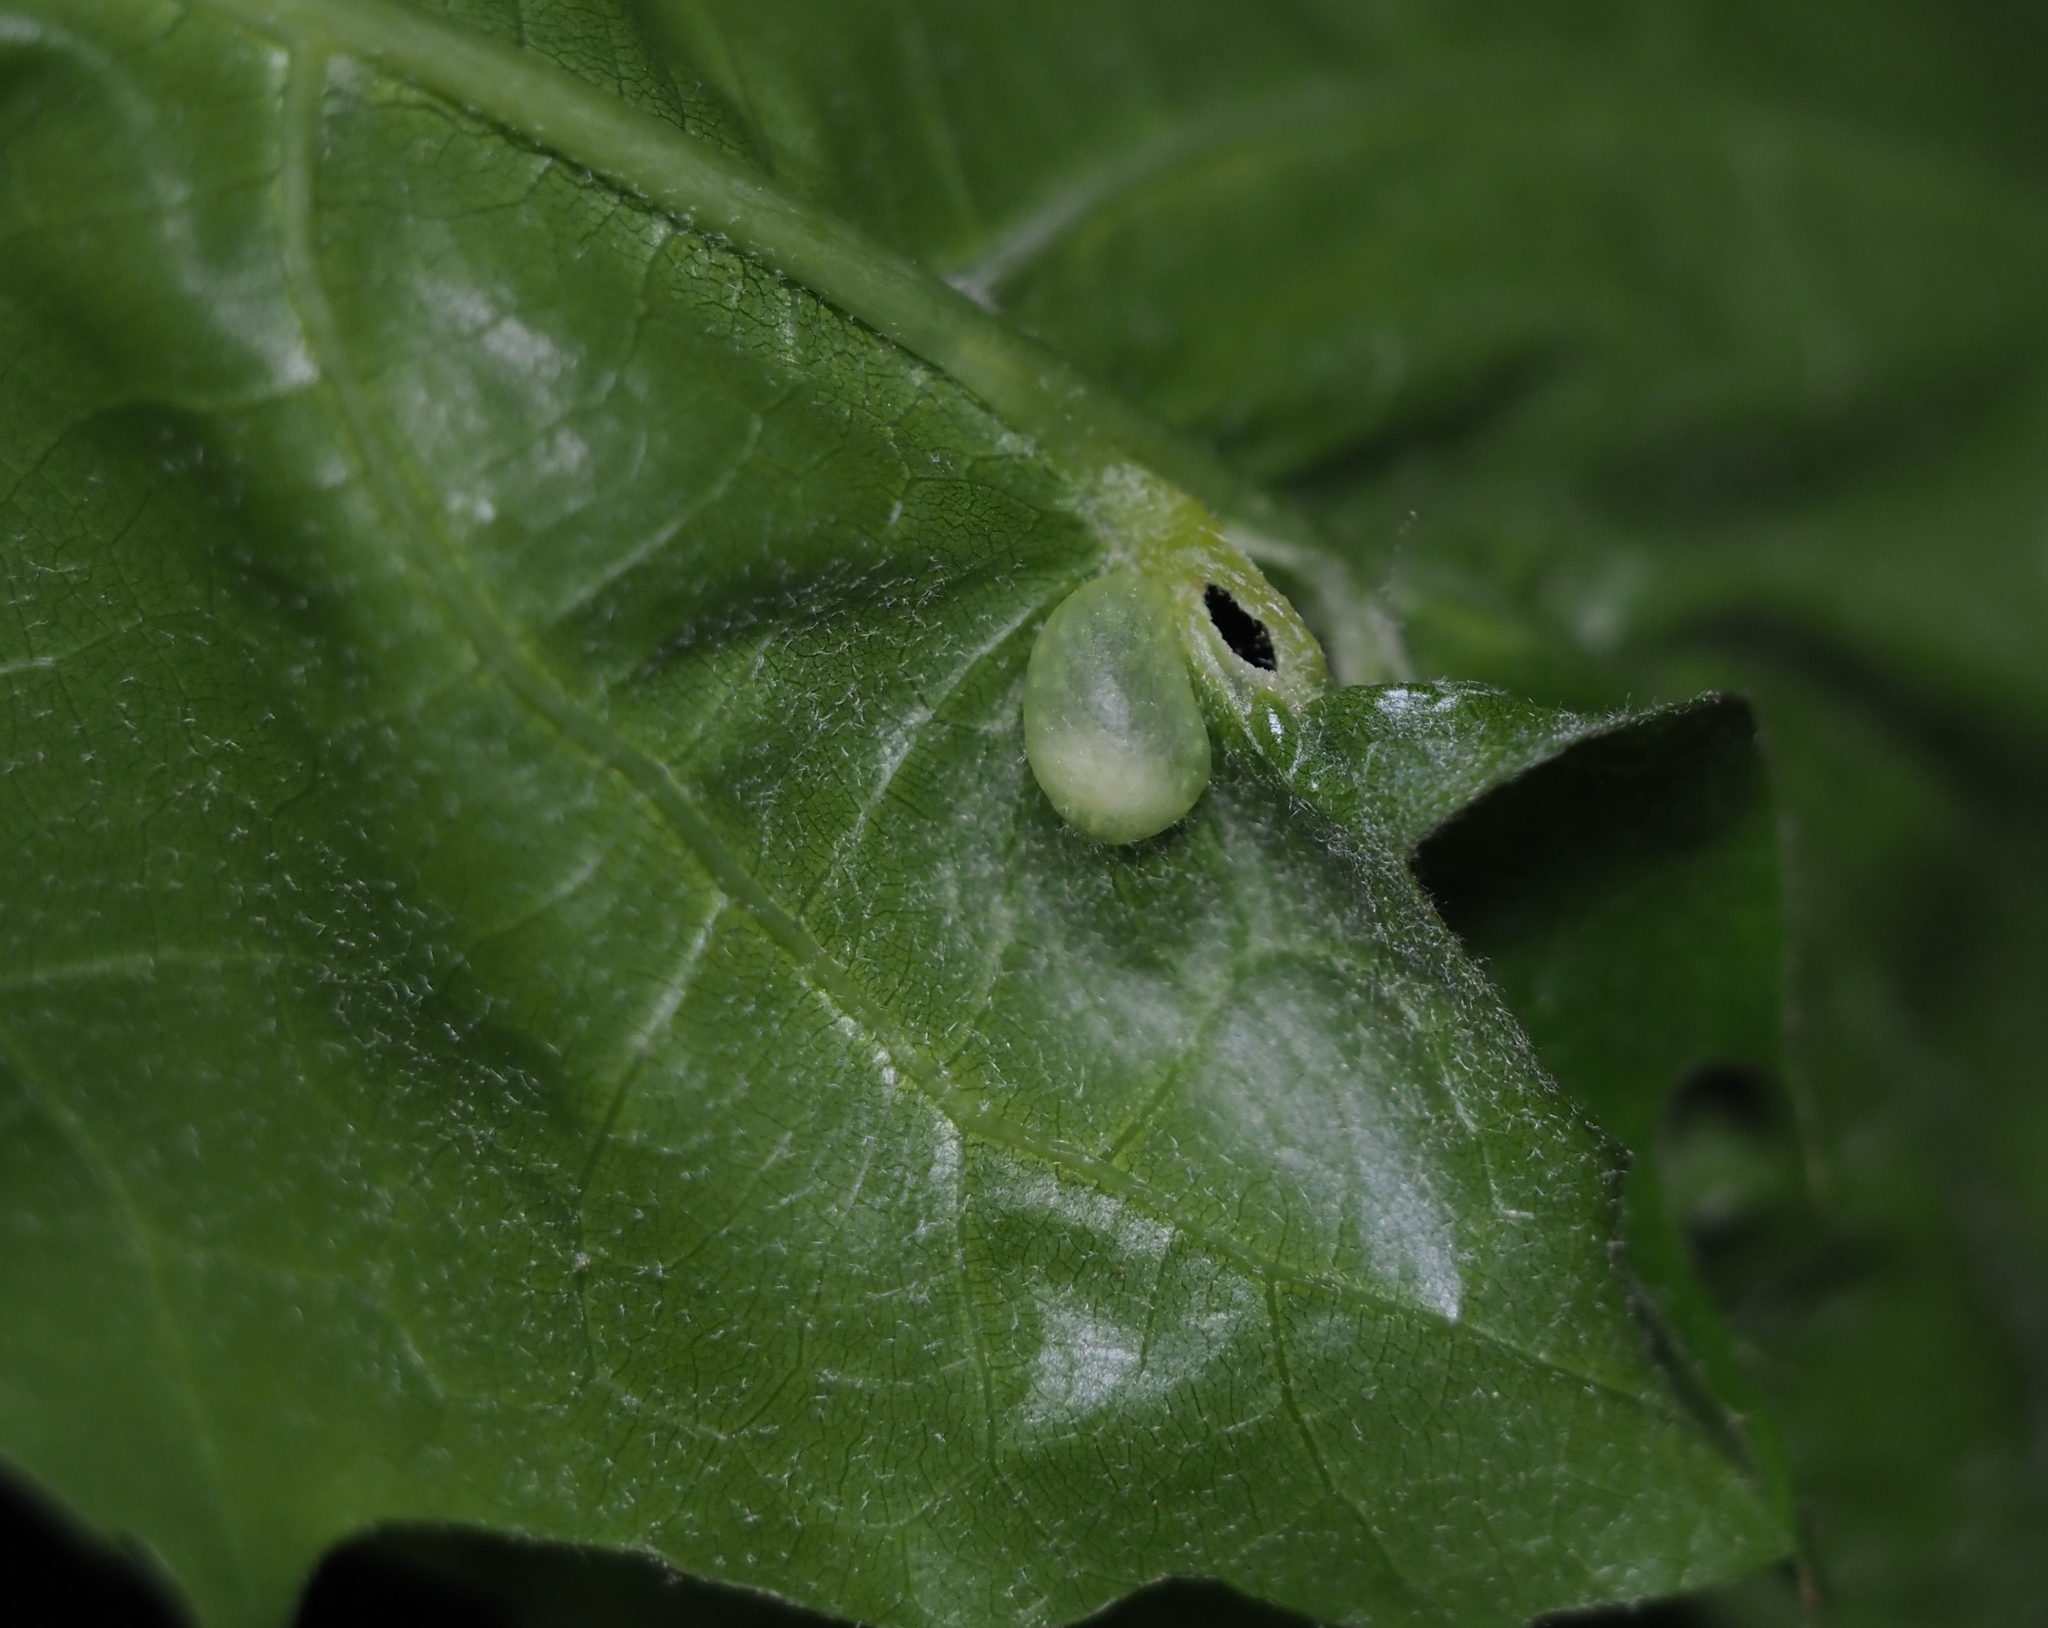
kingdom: Animalia
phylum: Arthropoda
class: Insecta
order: Hymenoptera
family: Cynipidae
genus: Dryocosmus
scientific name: Dryocosmus
